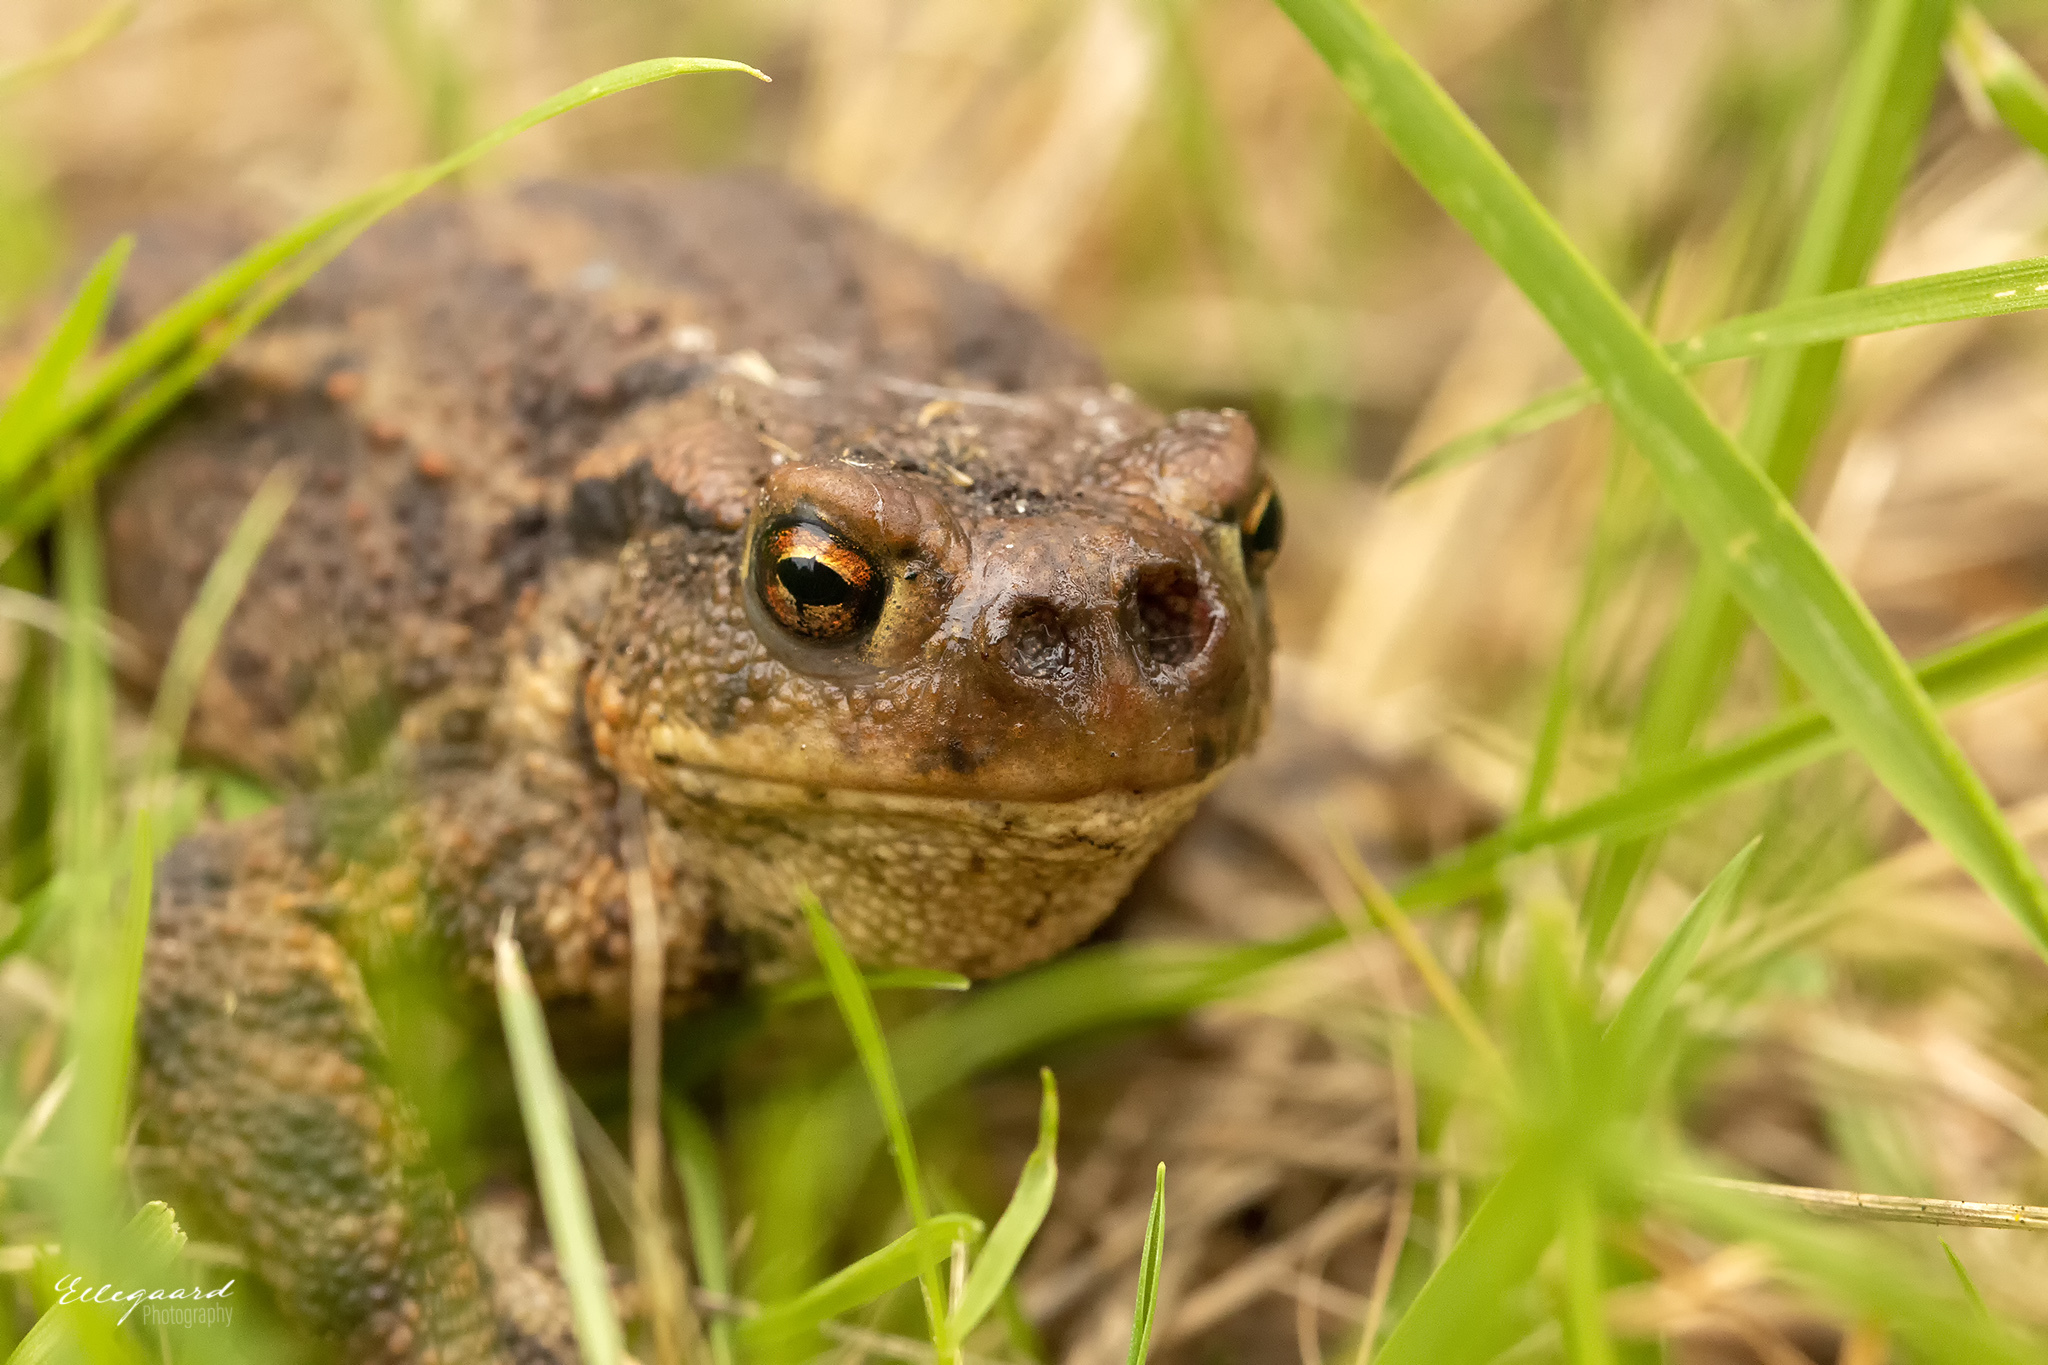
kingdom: Animalia
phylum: Arthropoda
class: Insecta
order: Diptera
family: Calliphoridae
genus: Lucilia
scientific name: Lucilia bufonivora
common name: Anuran parasite
